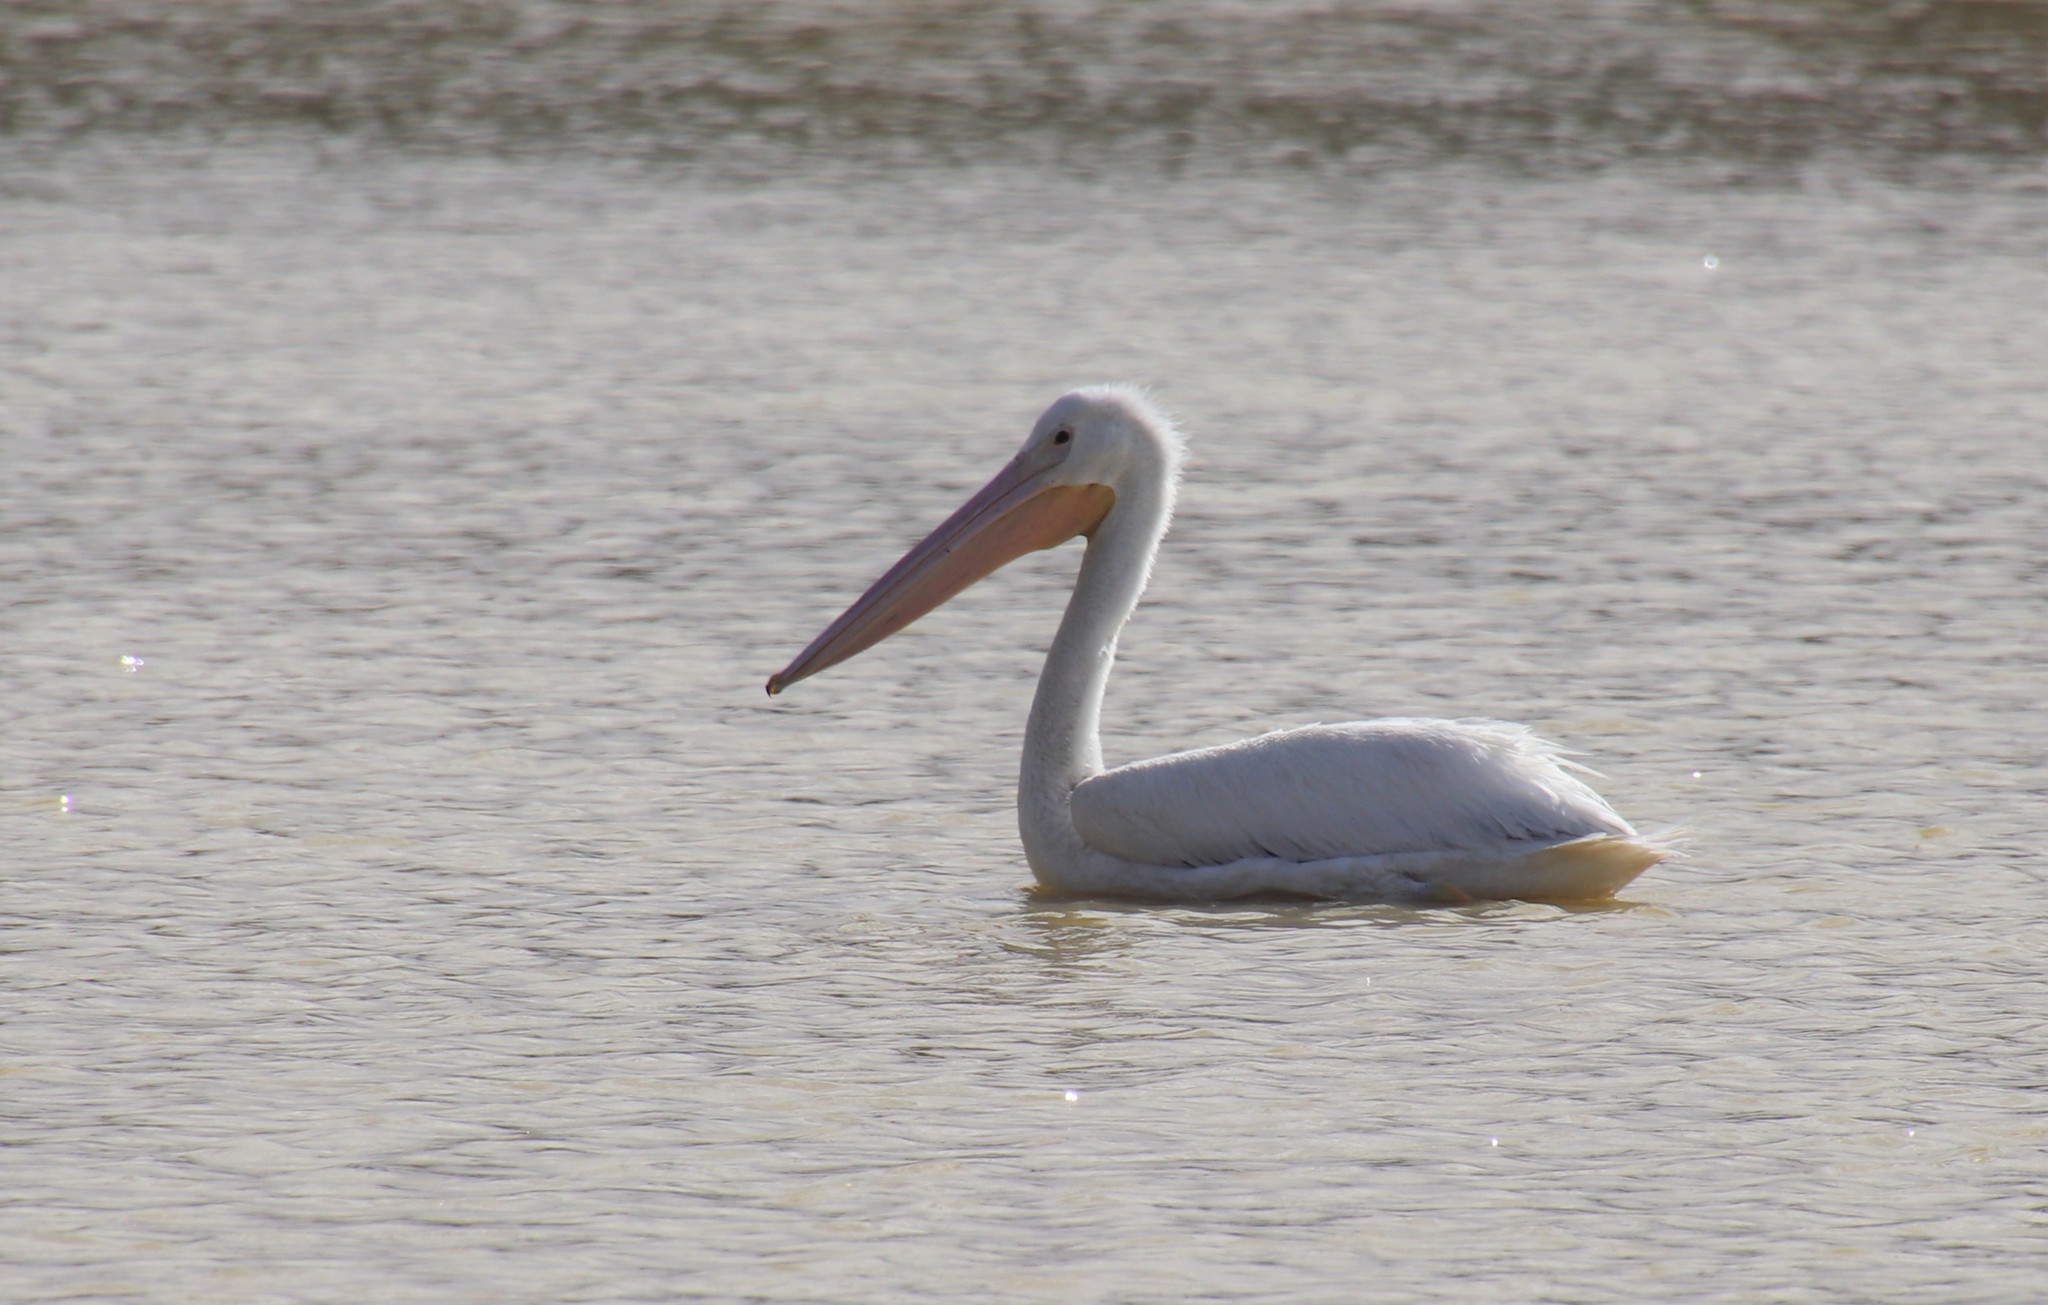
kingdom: Animalia
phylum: Chordata
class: Aves
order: Pelecaniformes
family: Pelecanidae
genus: Pelecanus
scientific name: Pelecanus erythrorhynchos
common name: American white pelican
